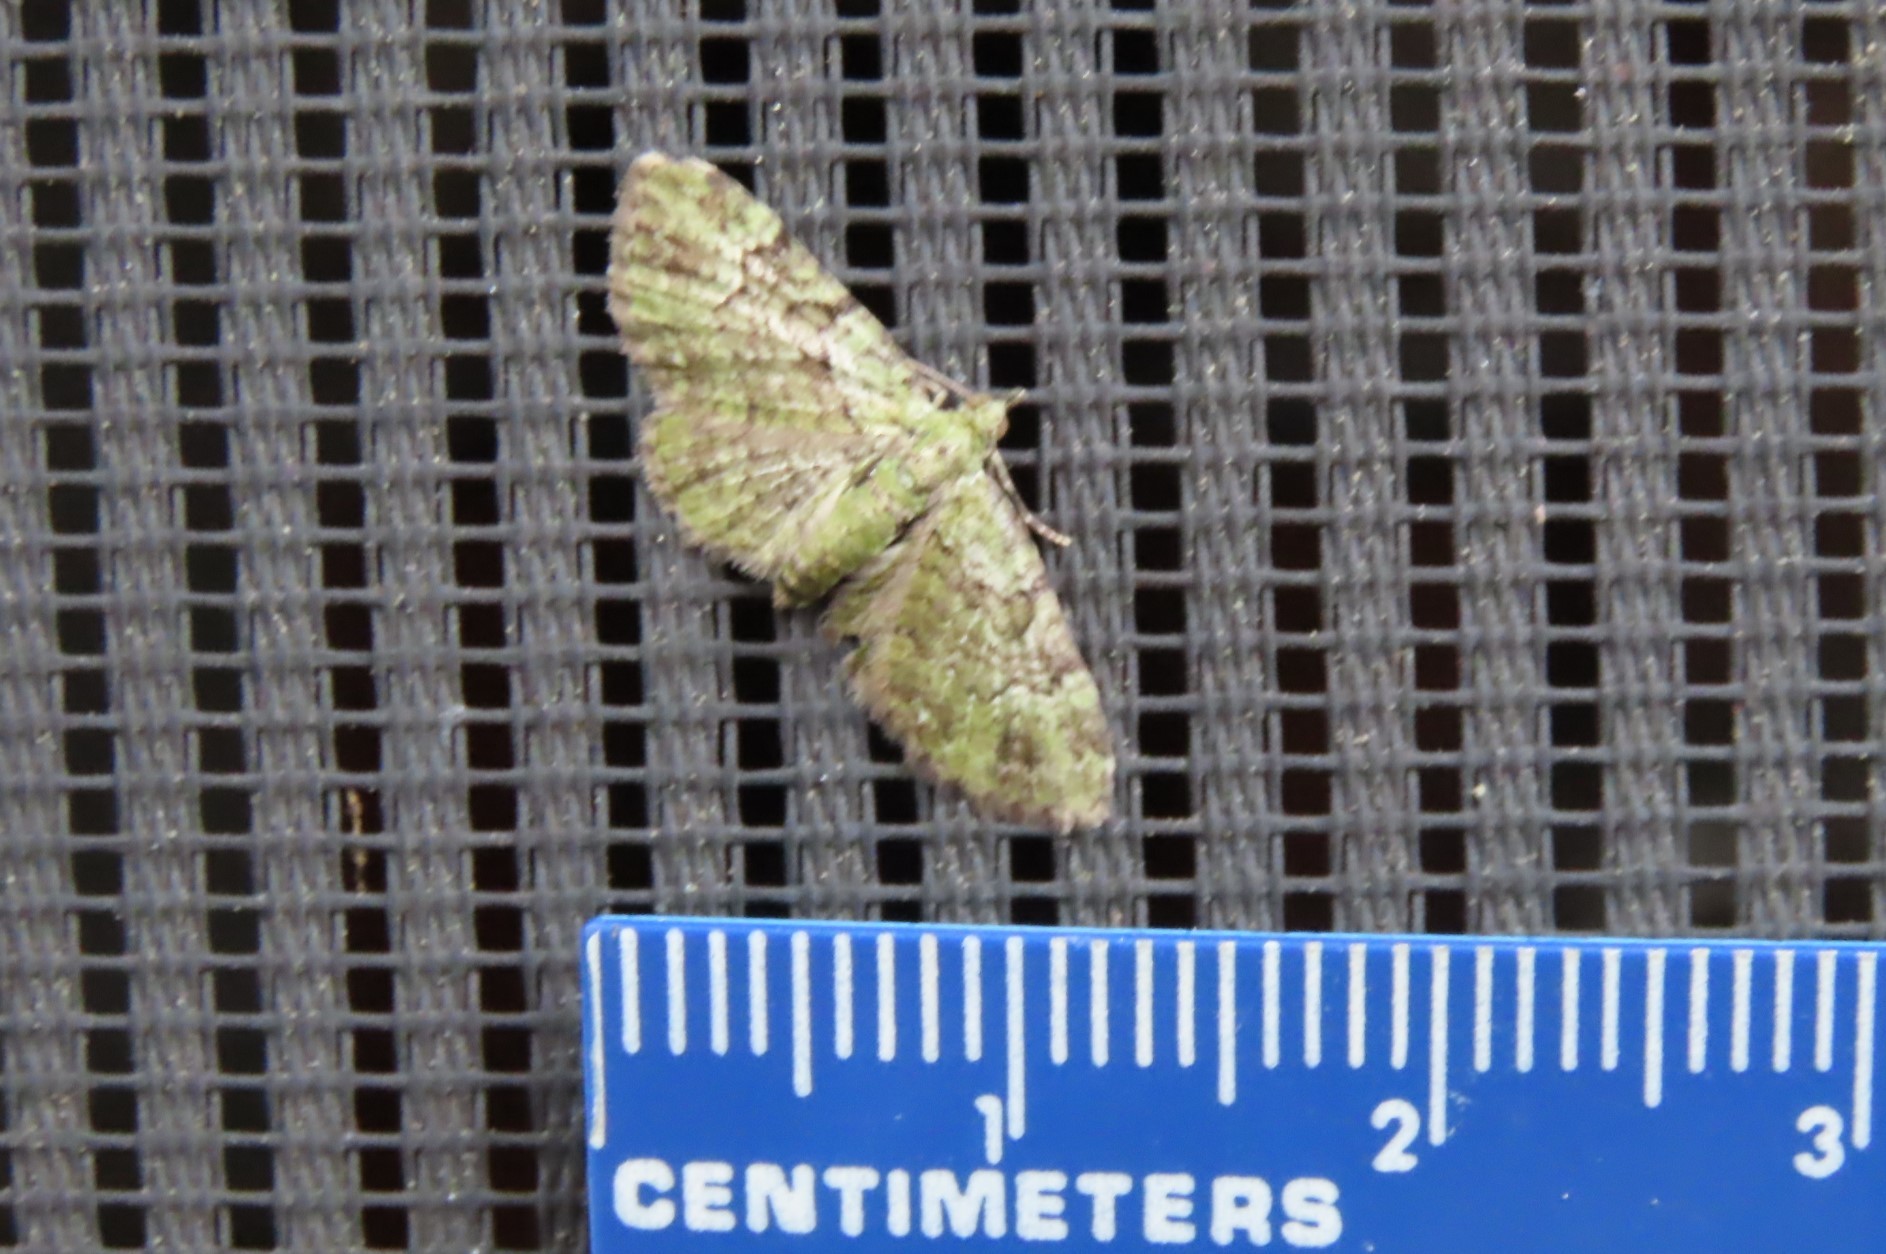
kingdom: Animalia
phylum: Arthropoda
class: Insecta
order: Lepidoptera
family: Geometridae
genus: Pasiphila
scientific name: Pasiphila rectangulata
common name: Green pug
